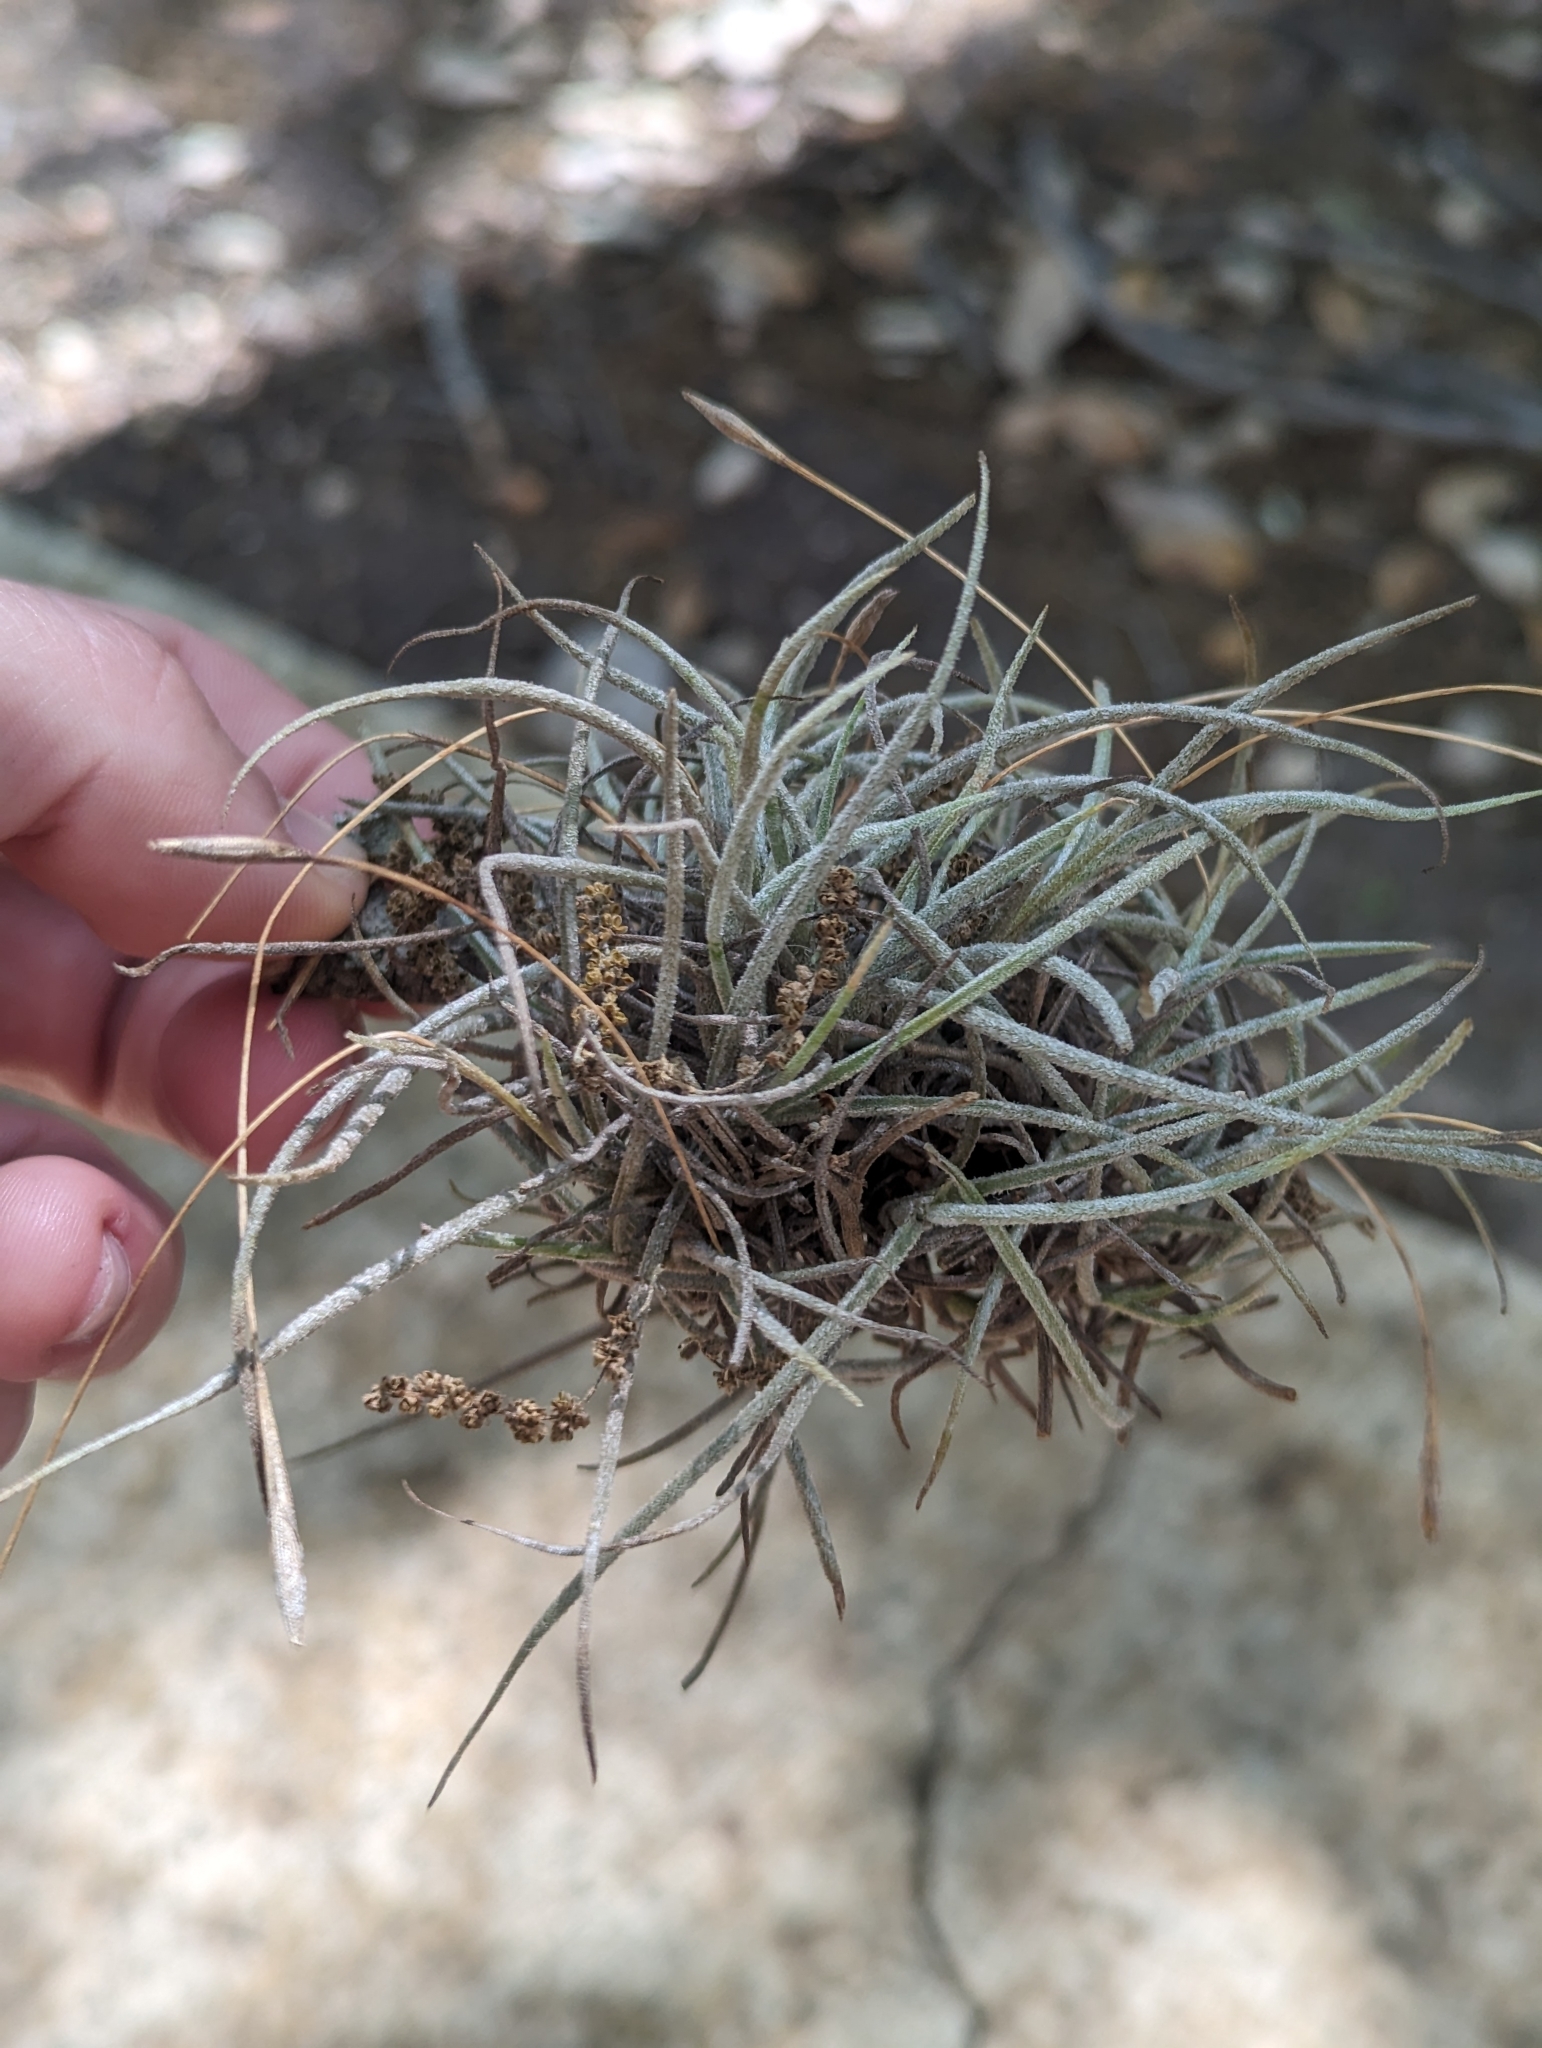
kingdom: Plantae
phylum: Tracheophyta
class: Liliopsida
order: Poales
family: Bromeliaceae
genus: Tillandsia
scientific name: Tillandsia recurvata
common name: Small ballmoss
